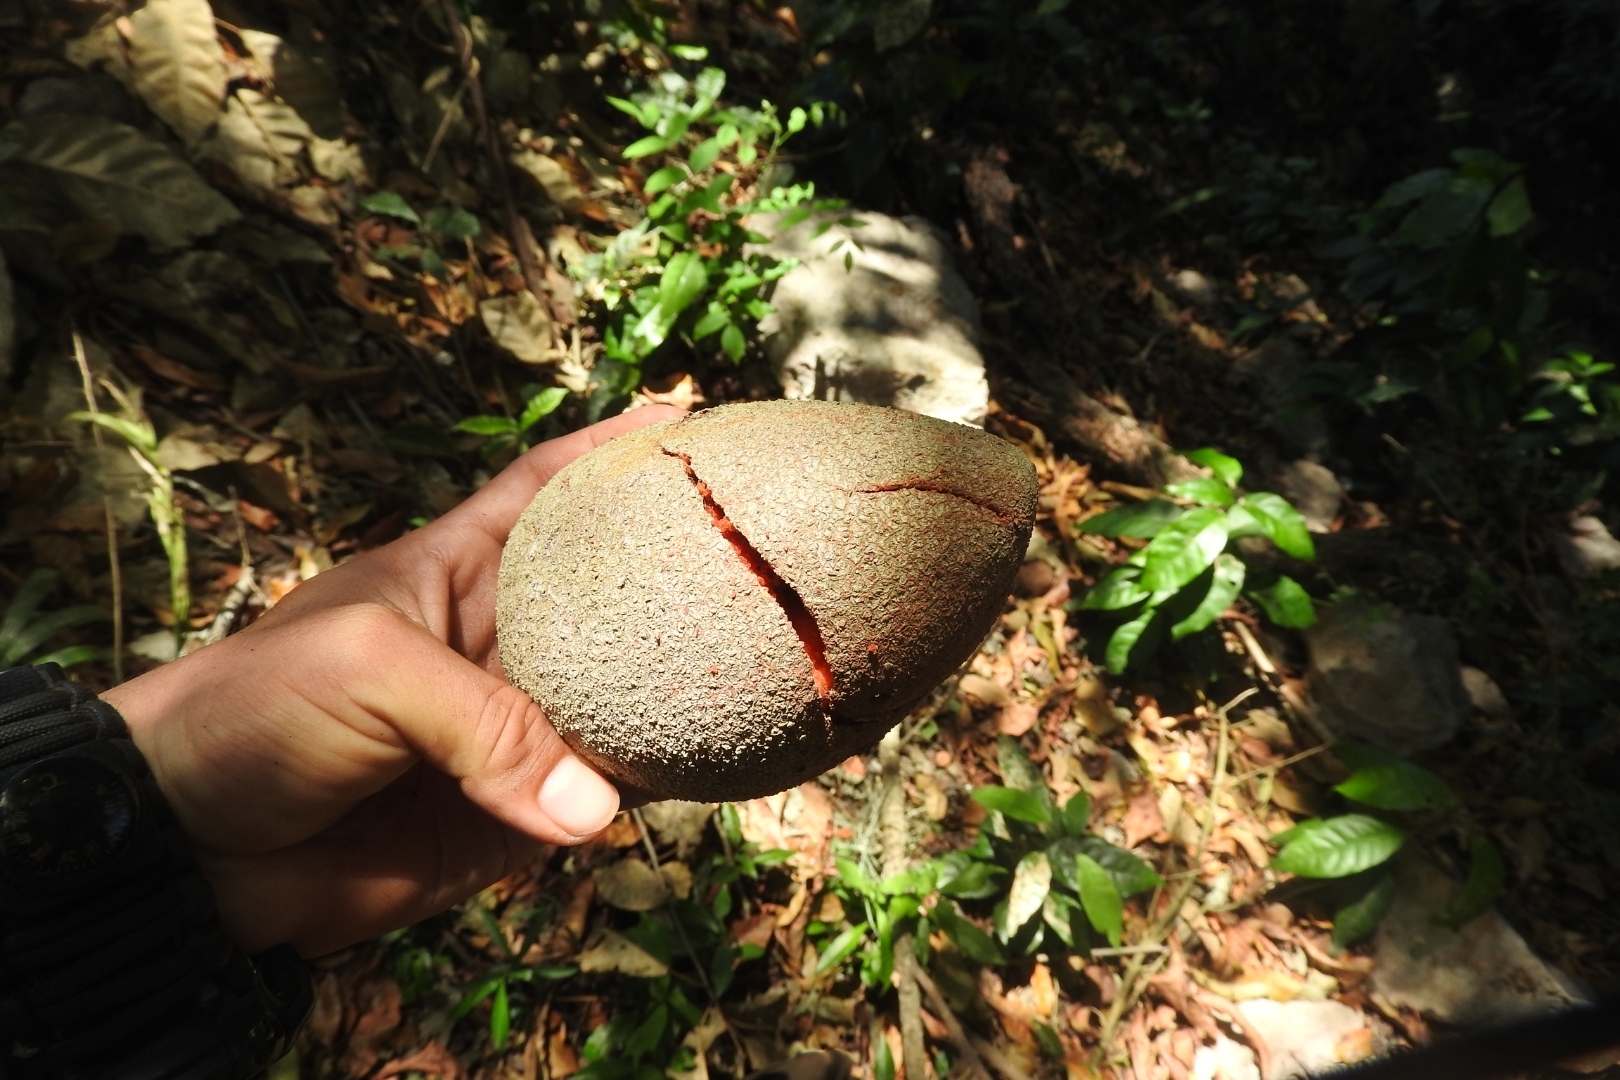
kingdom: Plantae
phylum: Tracheophyta
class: Magnoliopsida
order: Ericales
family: Sapotaceae
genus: Pouteria
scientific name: Pouteria sapota
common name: Mamey
